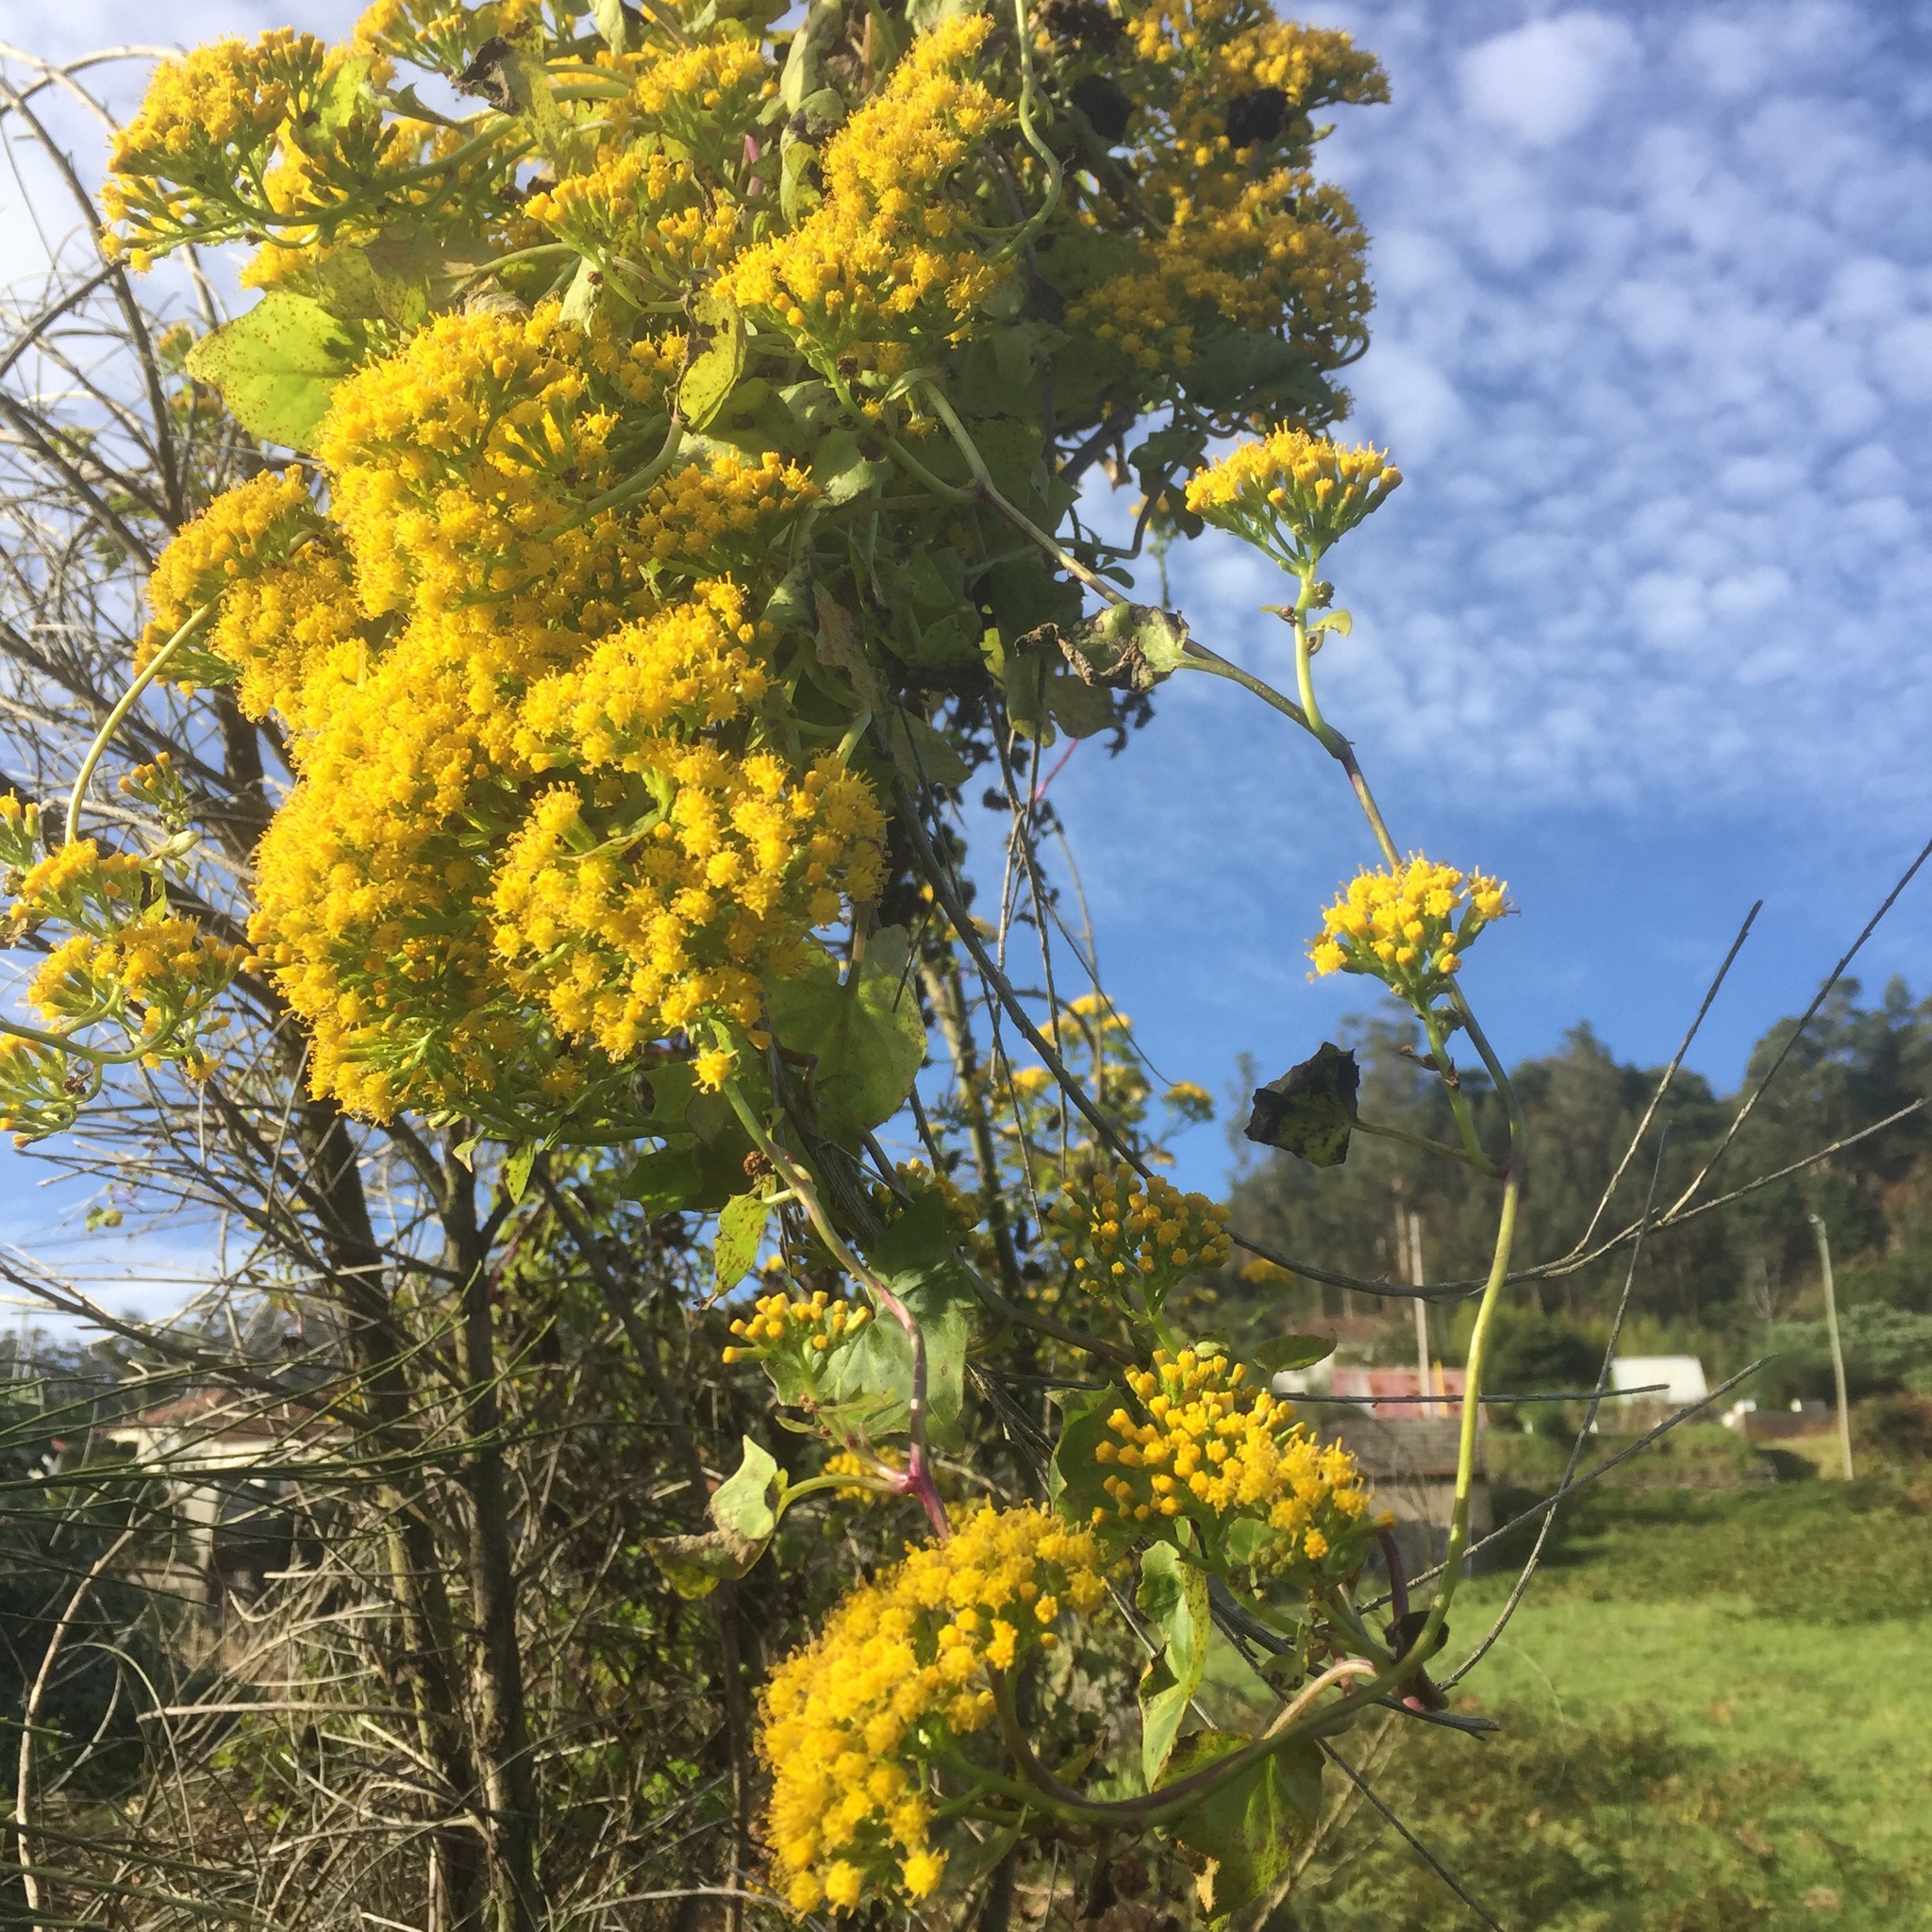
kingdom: Plantae
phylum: Tracheophyta
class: Magnoliopsida
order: Asterales
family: Asteraceae
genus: Delairea
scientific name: Delairea odorata
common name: Cape-ivy
